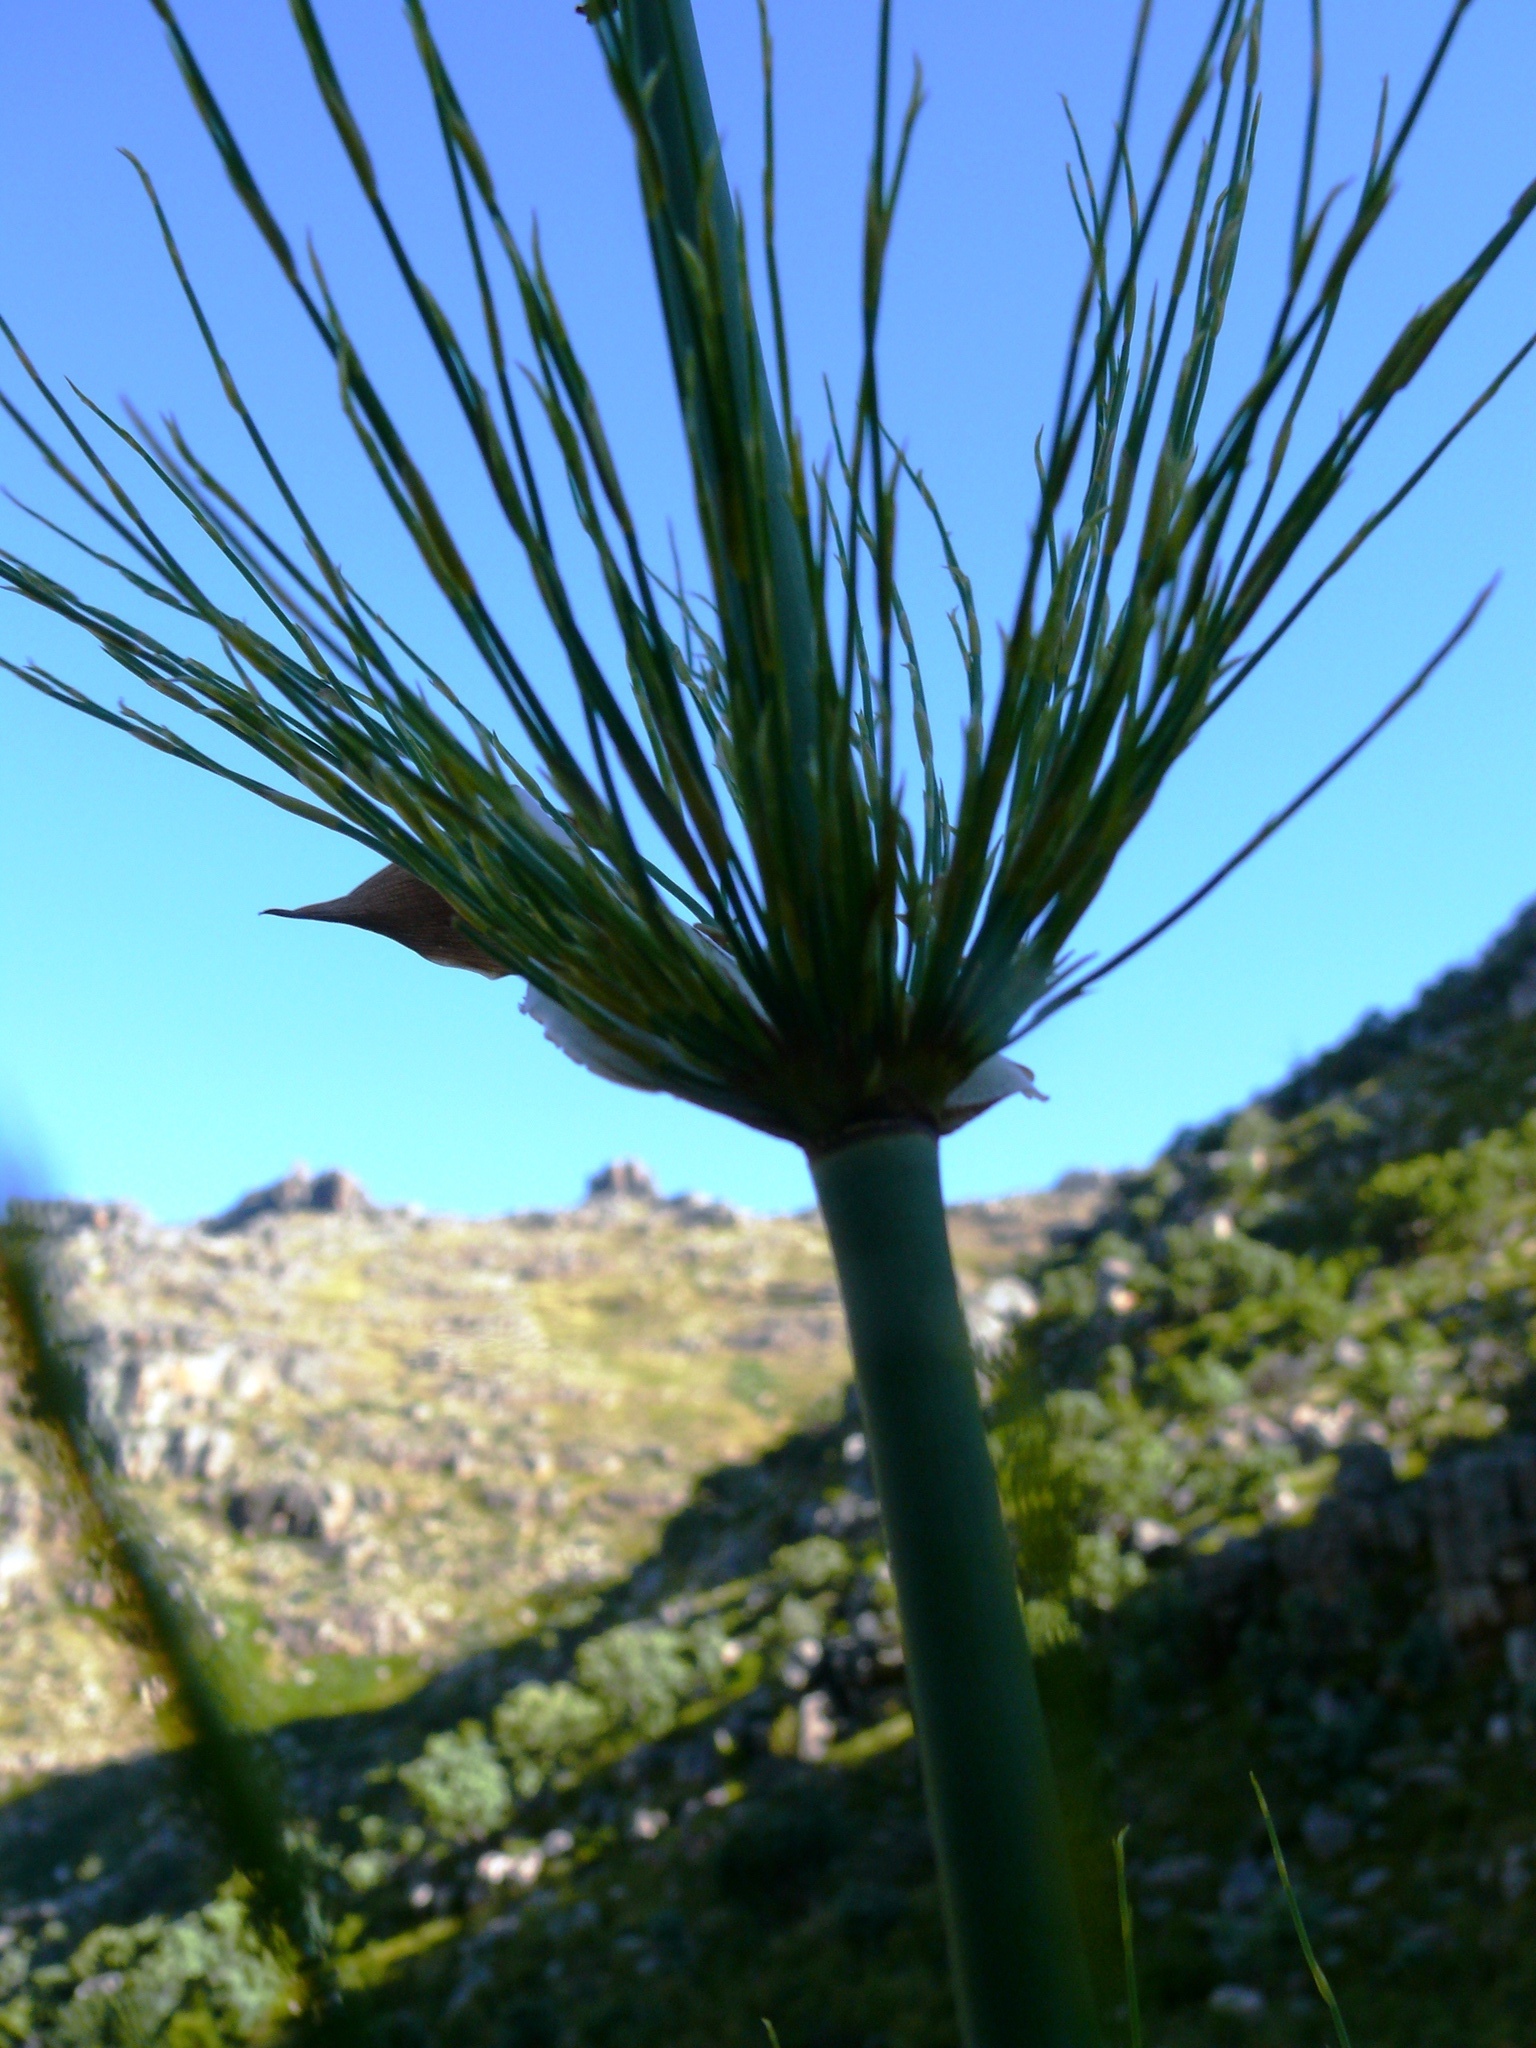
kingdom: Plantae
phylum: Tracheophyta
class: Liliopsida
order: Poales
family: Restionaceae
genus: Elegia
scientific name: Elegia capensis
